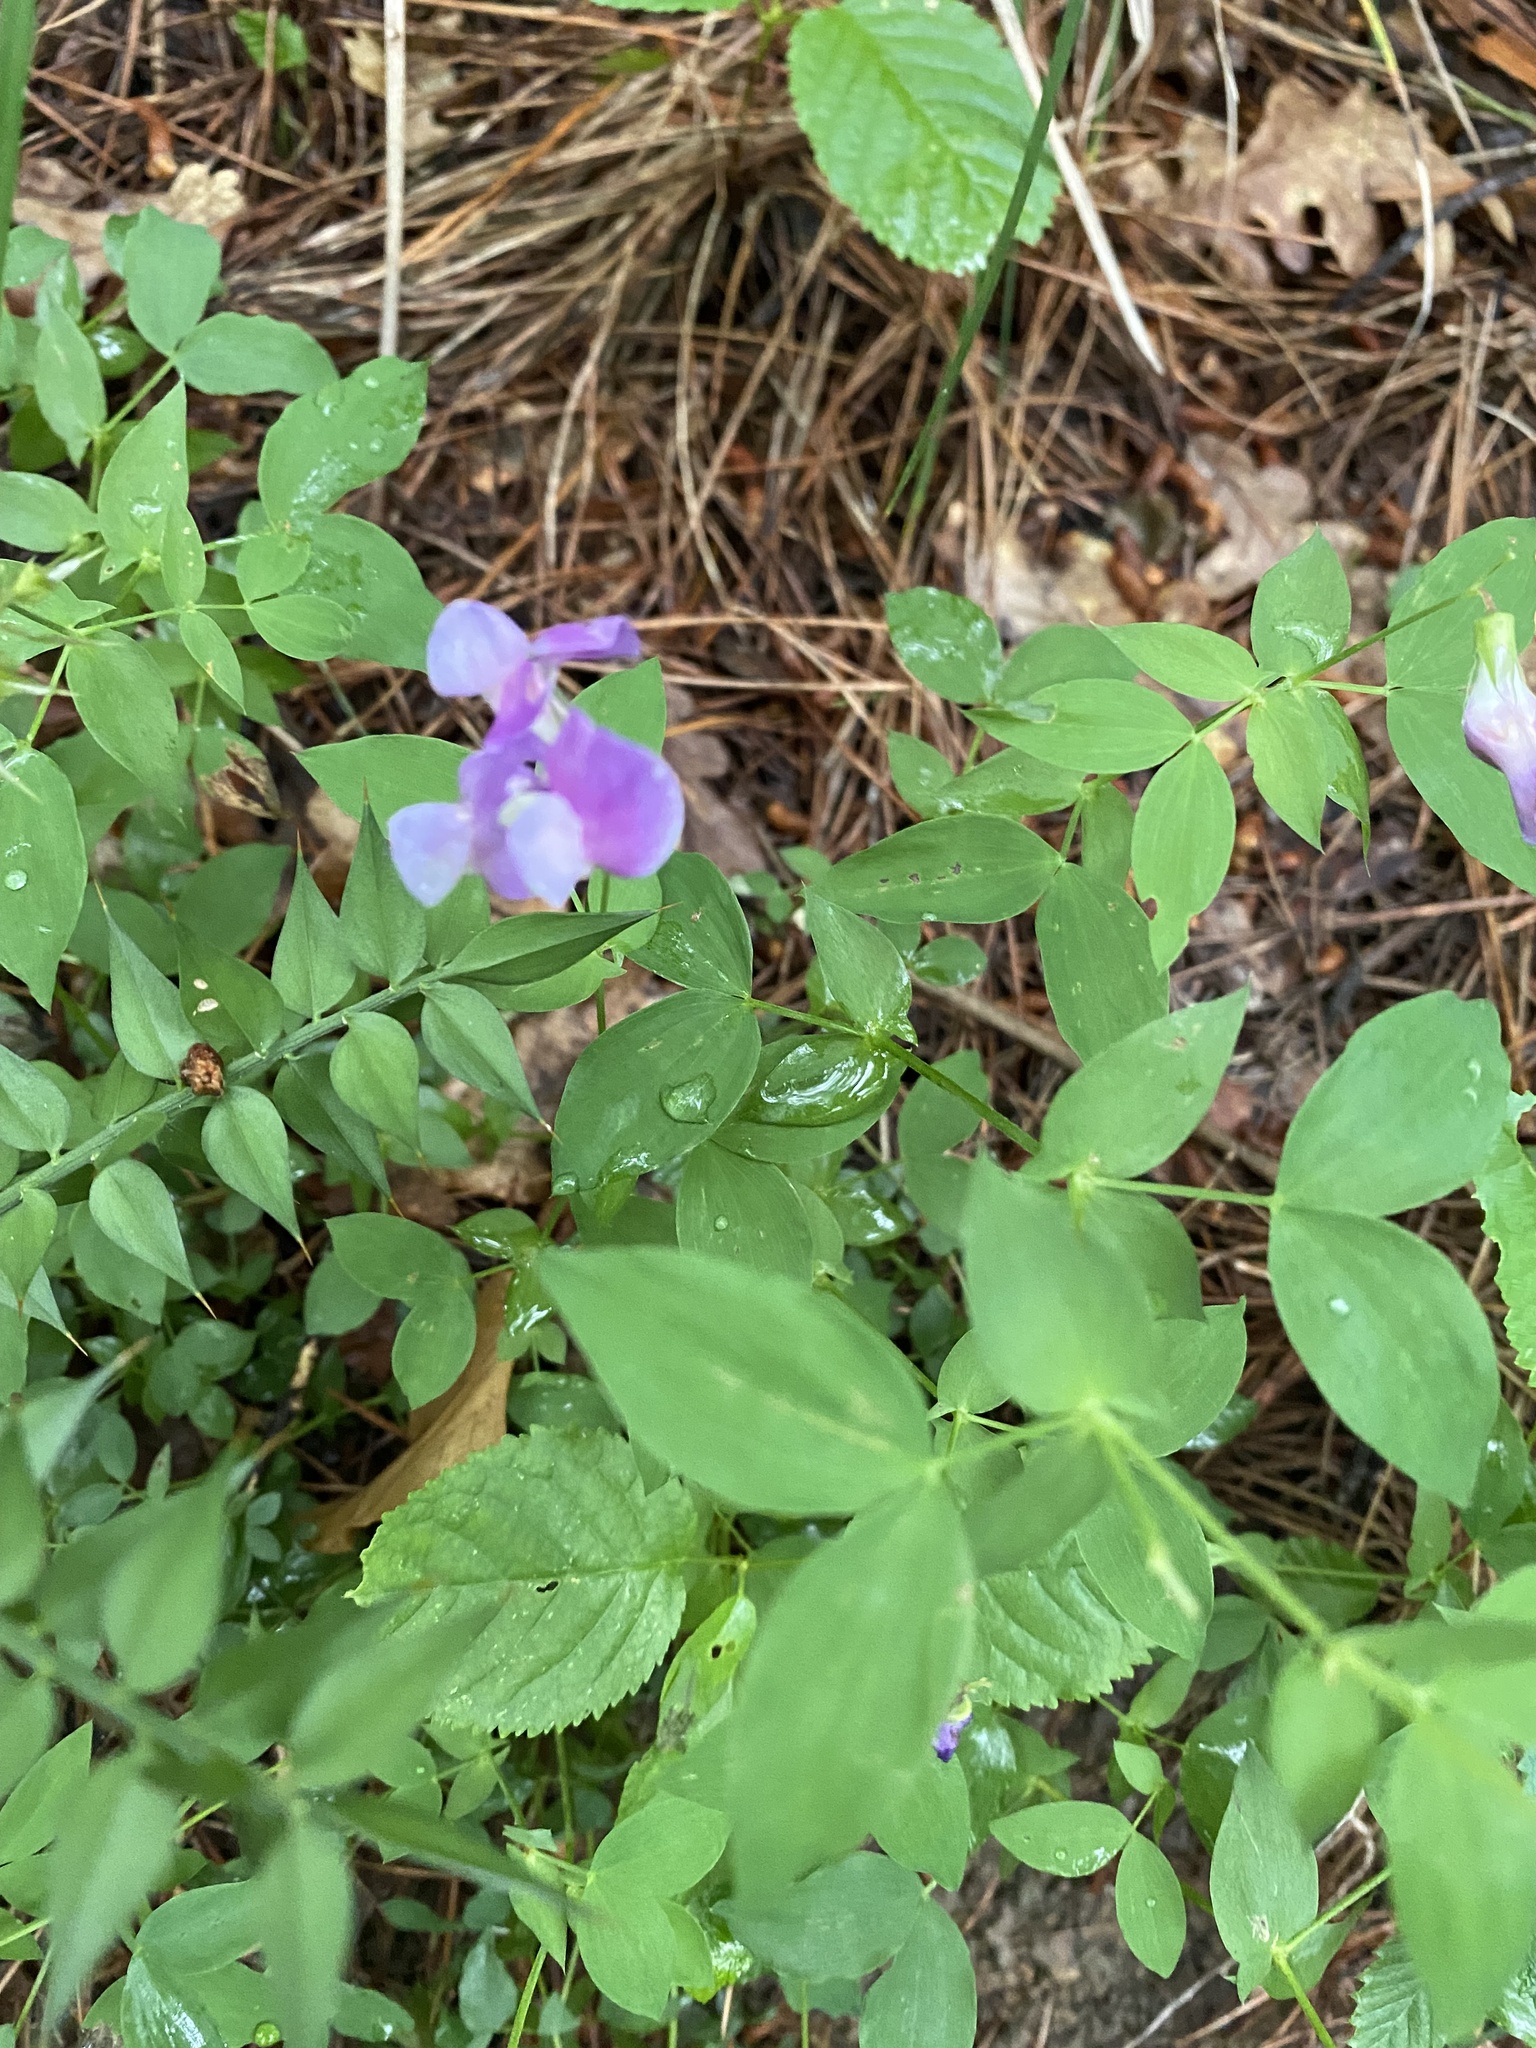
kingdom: Plantae
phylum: Tracheophyta
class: Magnoliopsida
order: Fabales
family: Fabaceae
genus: Lathyrus
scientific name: Lathyrus laxiflorus
